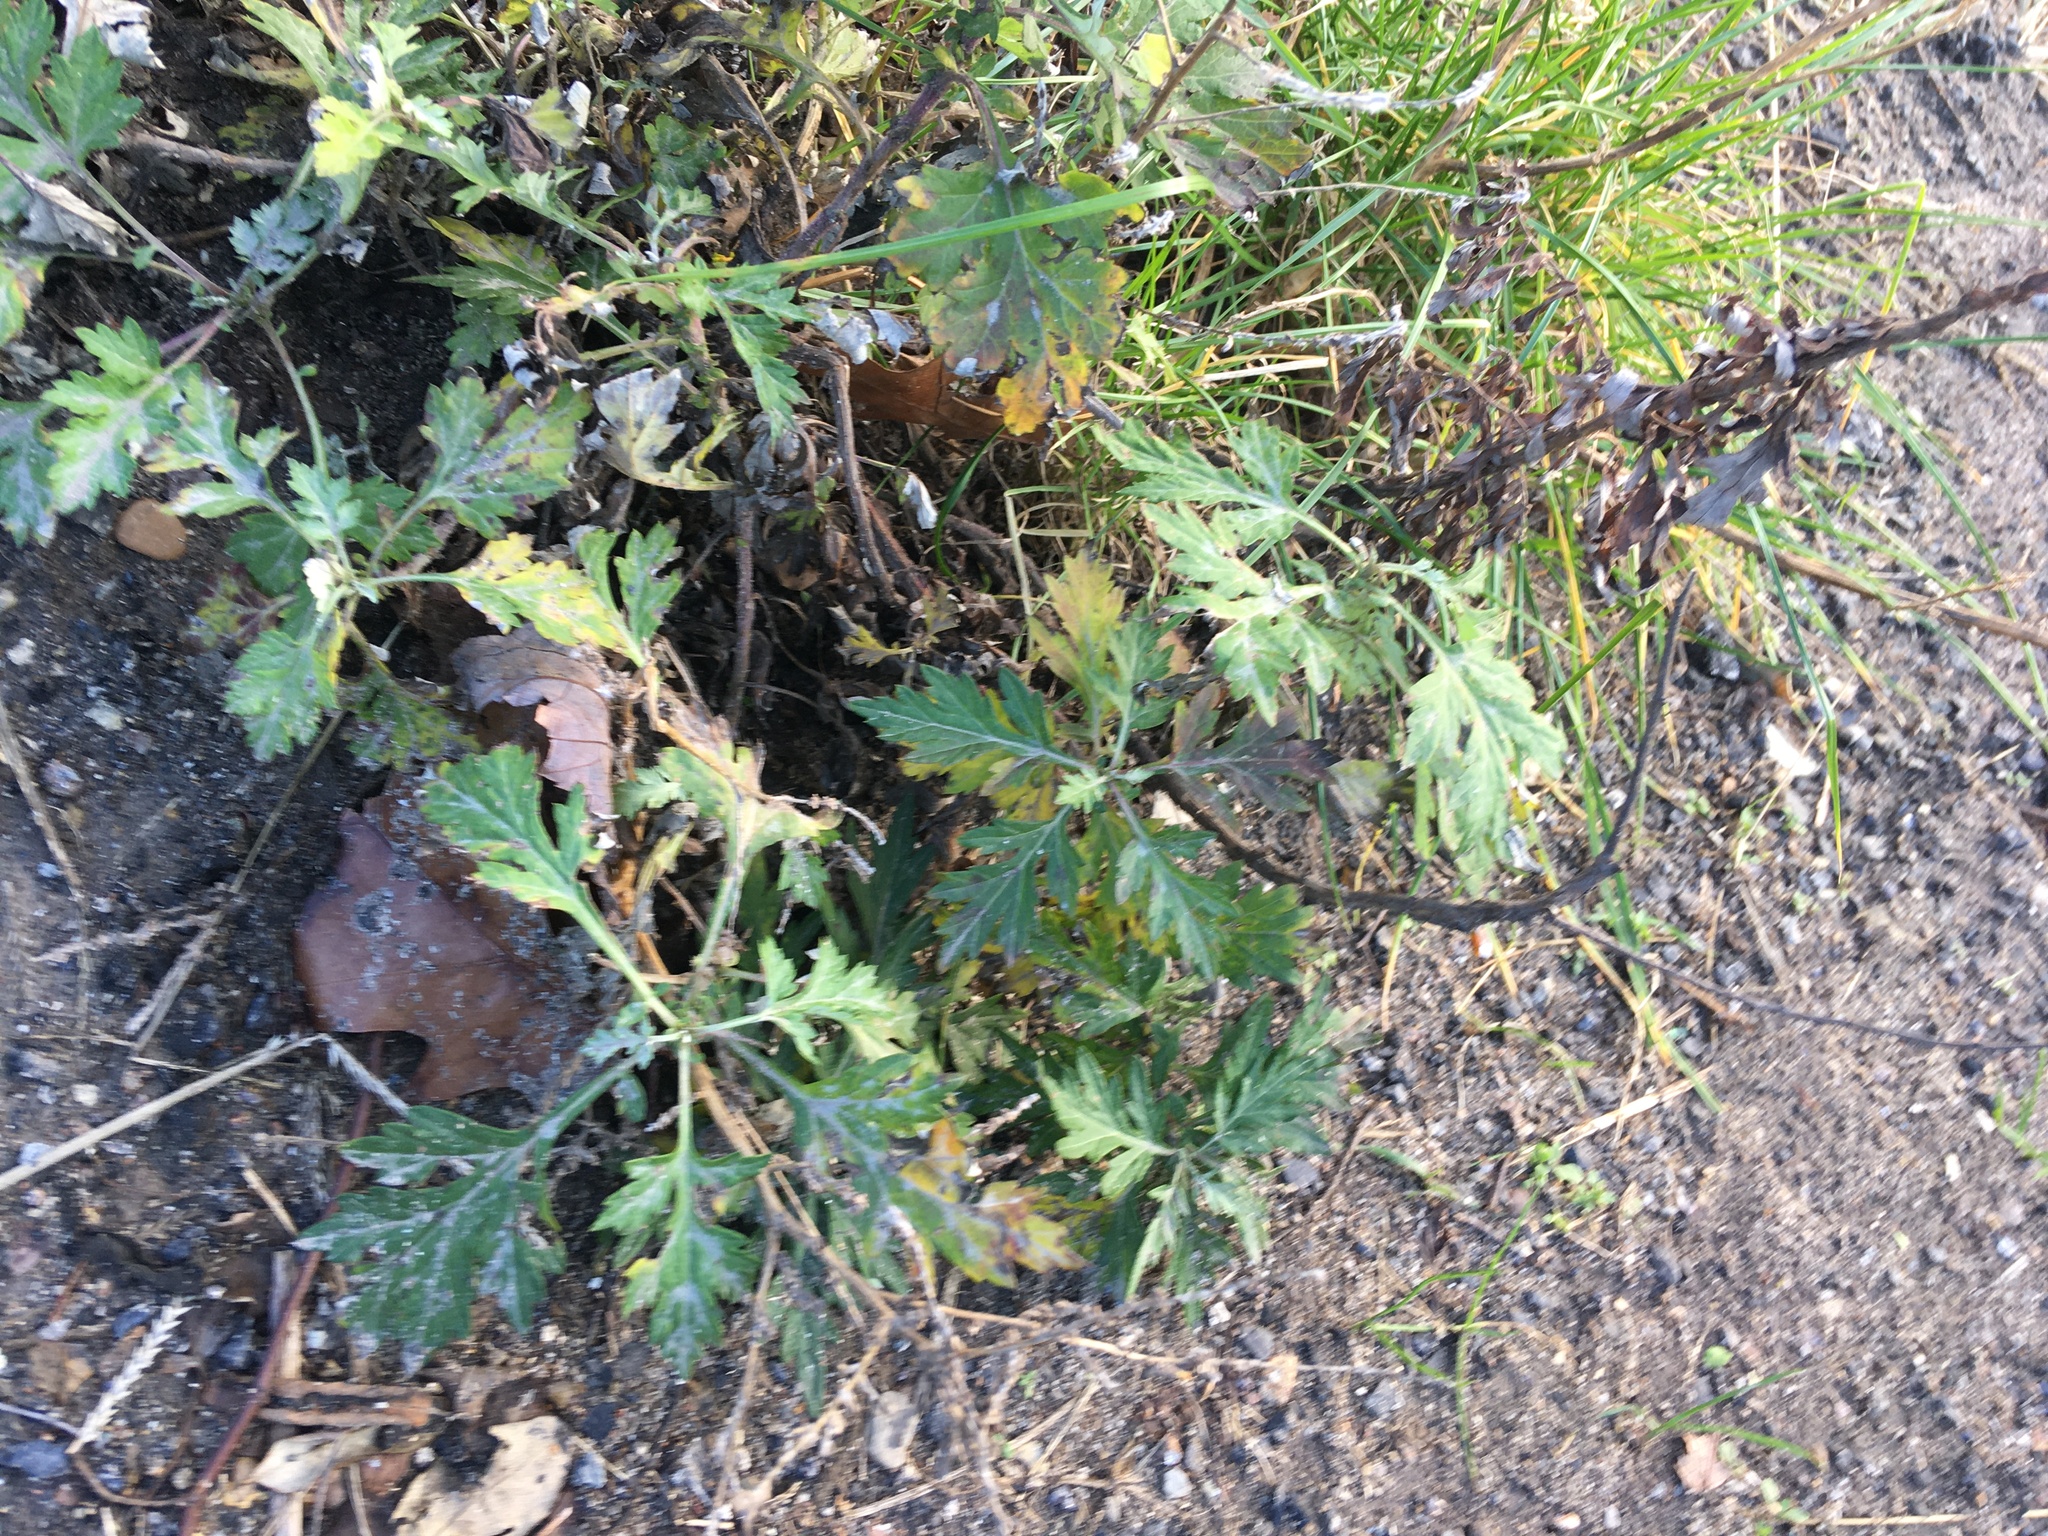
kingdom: Plantae
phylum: Tracheophyta
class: Magnoliopsida
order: Asterales
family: Asteraceae
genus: Artemisia
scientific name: Artemisia vulgaris
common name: Mugwort
